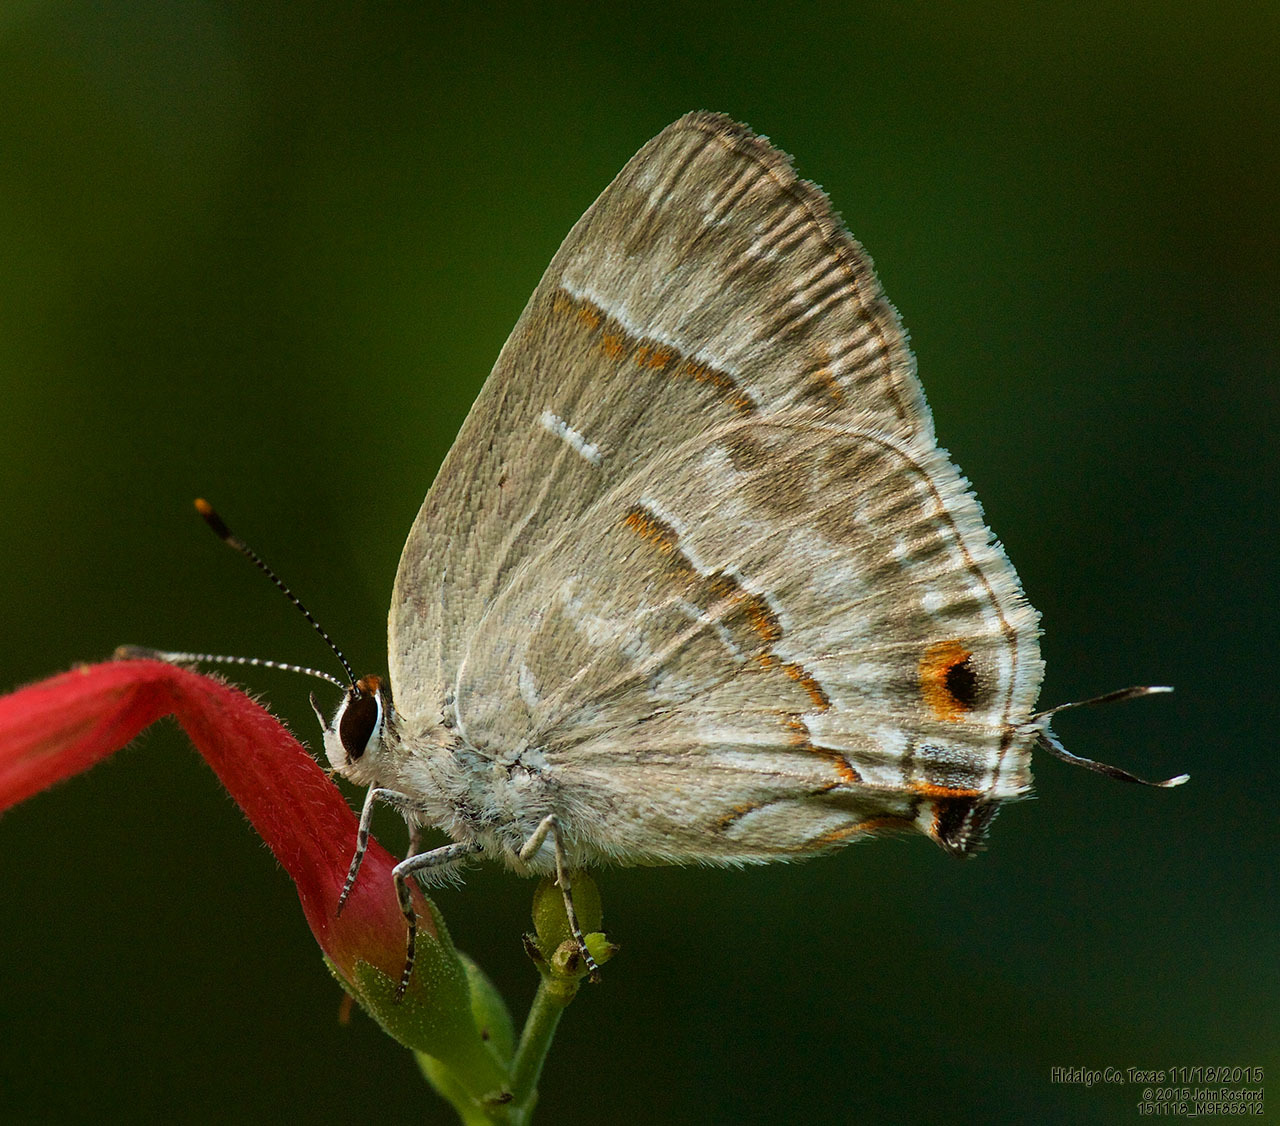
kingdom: Animalia
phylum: Arthropoda
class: Insecta
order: Lepidoptera
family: Lycaenidae
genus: Thecla
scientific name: Thecla yojoa
